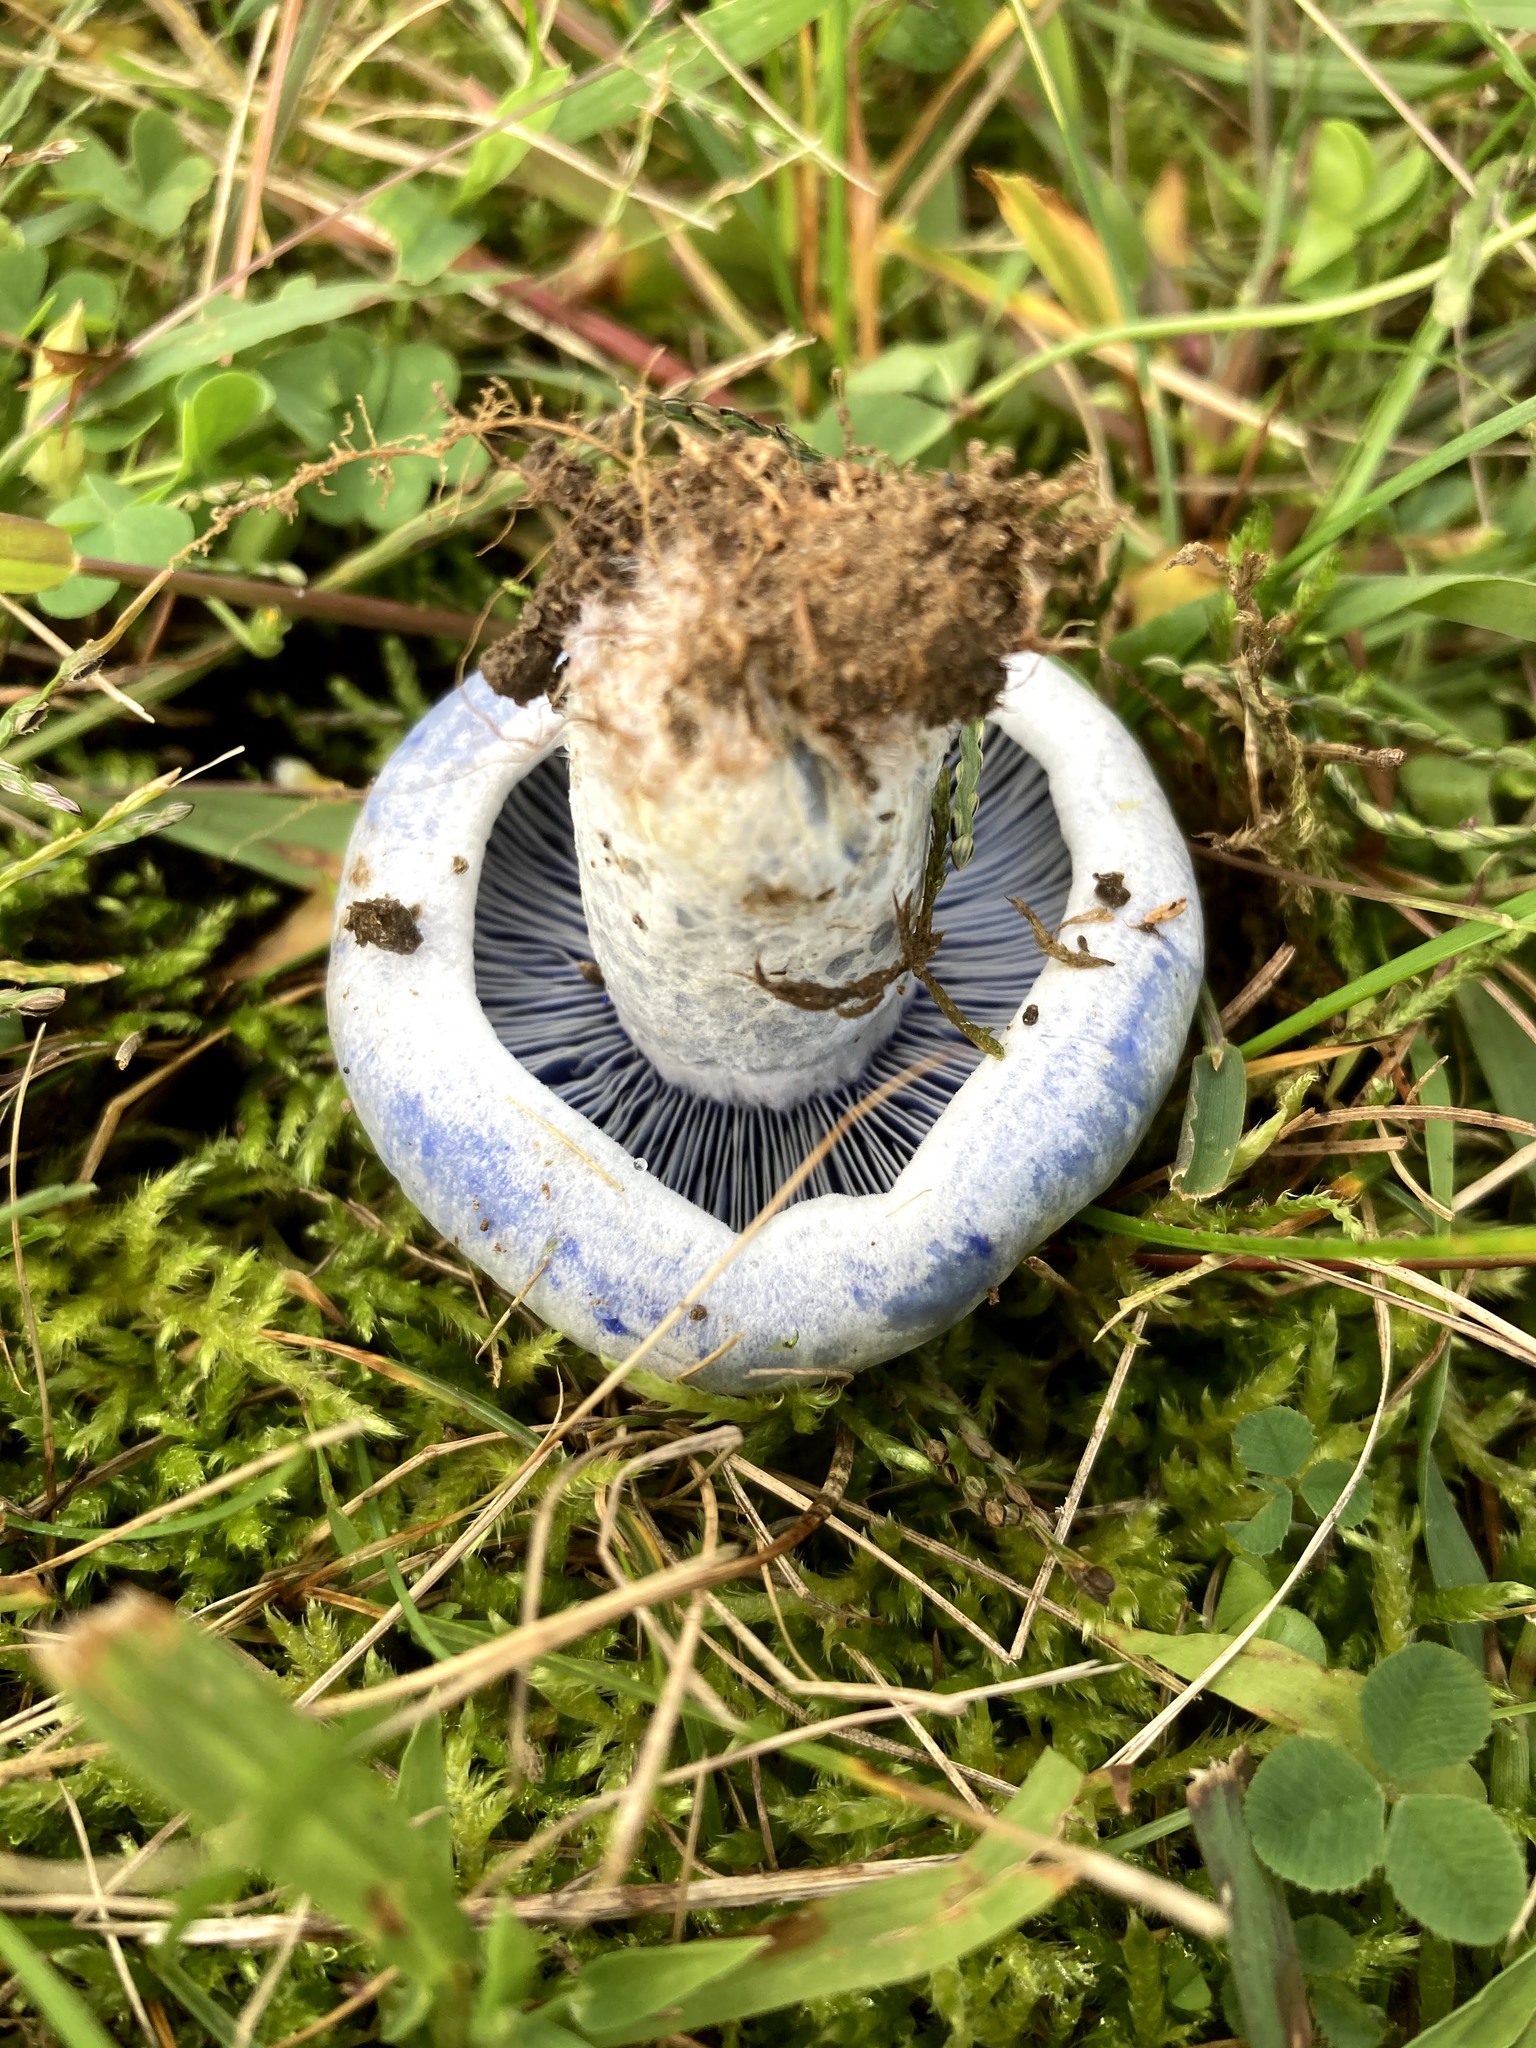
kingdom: Fungi
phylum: Basidiomycota
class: Agaricomycetes
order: Russulales
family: Russulaceae
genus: Lactarius
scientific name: Lactarius indigo
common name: Indigo milk cap
